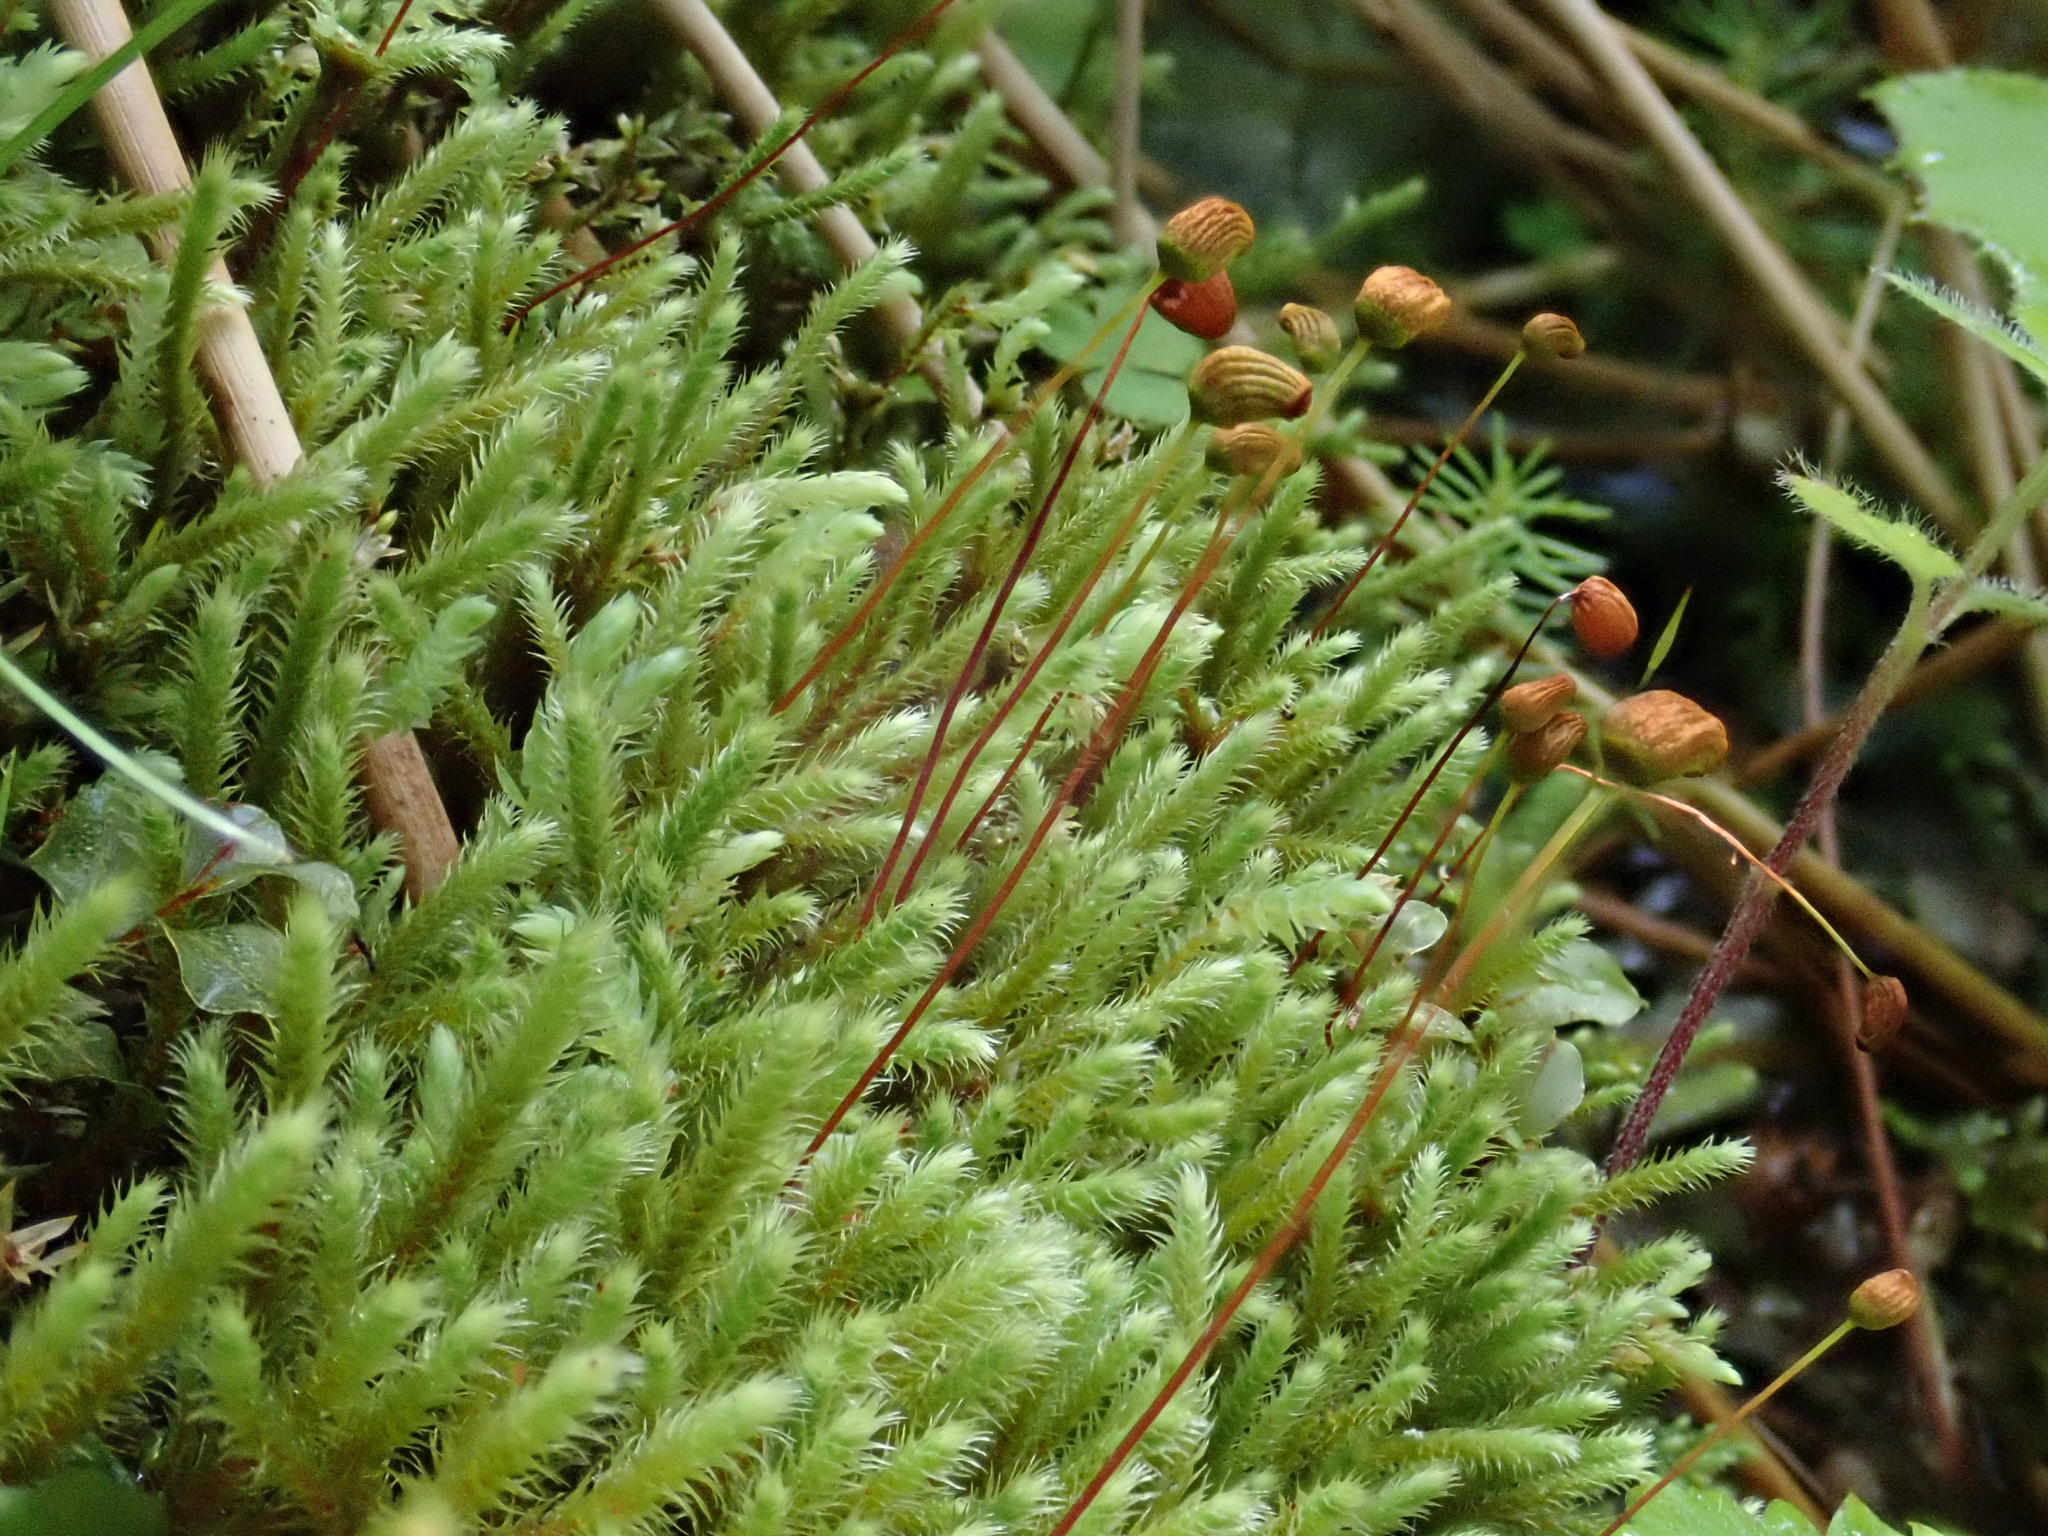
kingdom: Plantae
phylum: Bryophyta
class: Bryopsida
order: Bartramiales
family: Bartramiaceae
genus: Philonotis
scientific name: Philonotis fontana
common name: Fountain apple-moss
